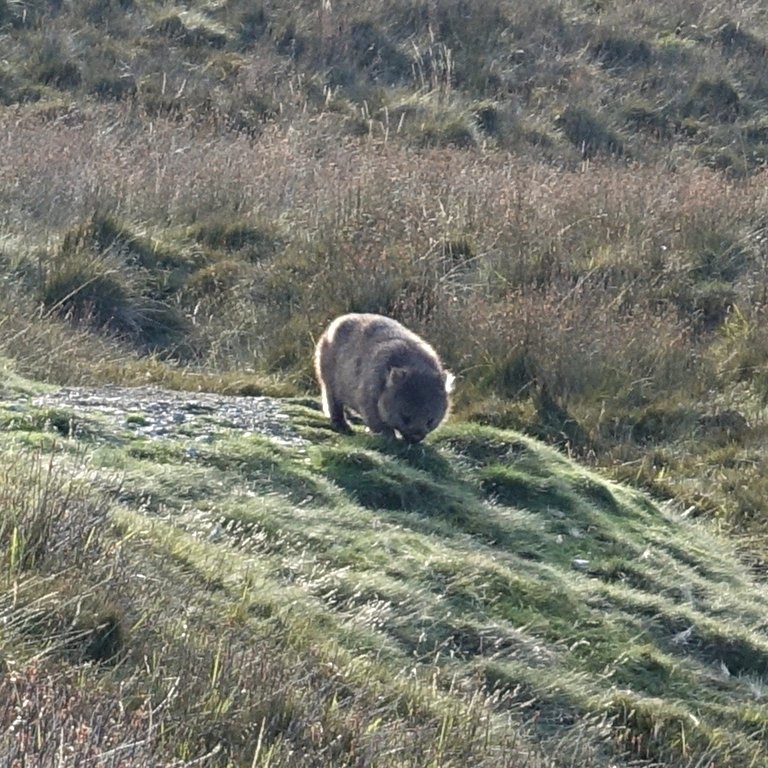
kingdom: Animalia
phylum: Chordata
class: Mammalia
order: Diprotodontia
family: Vombatidae
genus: Vombatus
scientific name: Vombatus ursinus
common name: Common wombat
